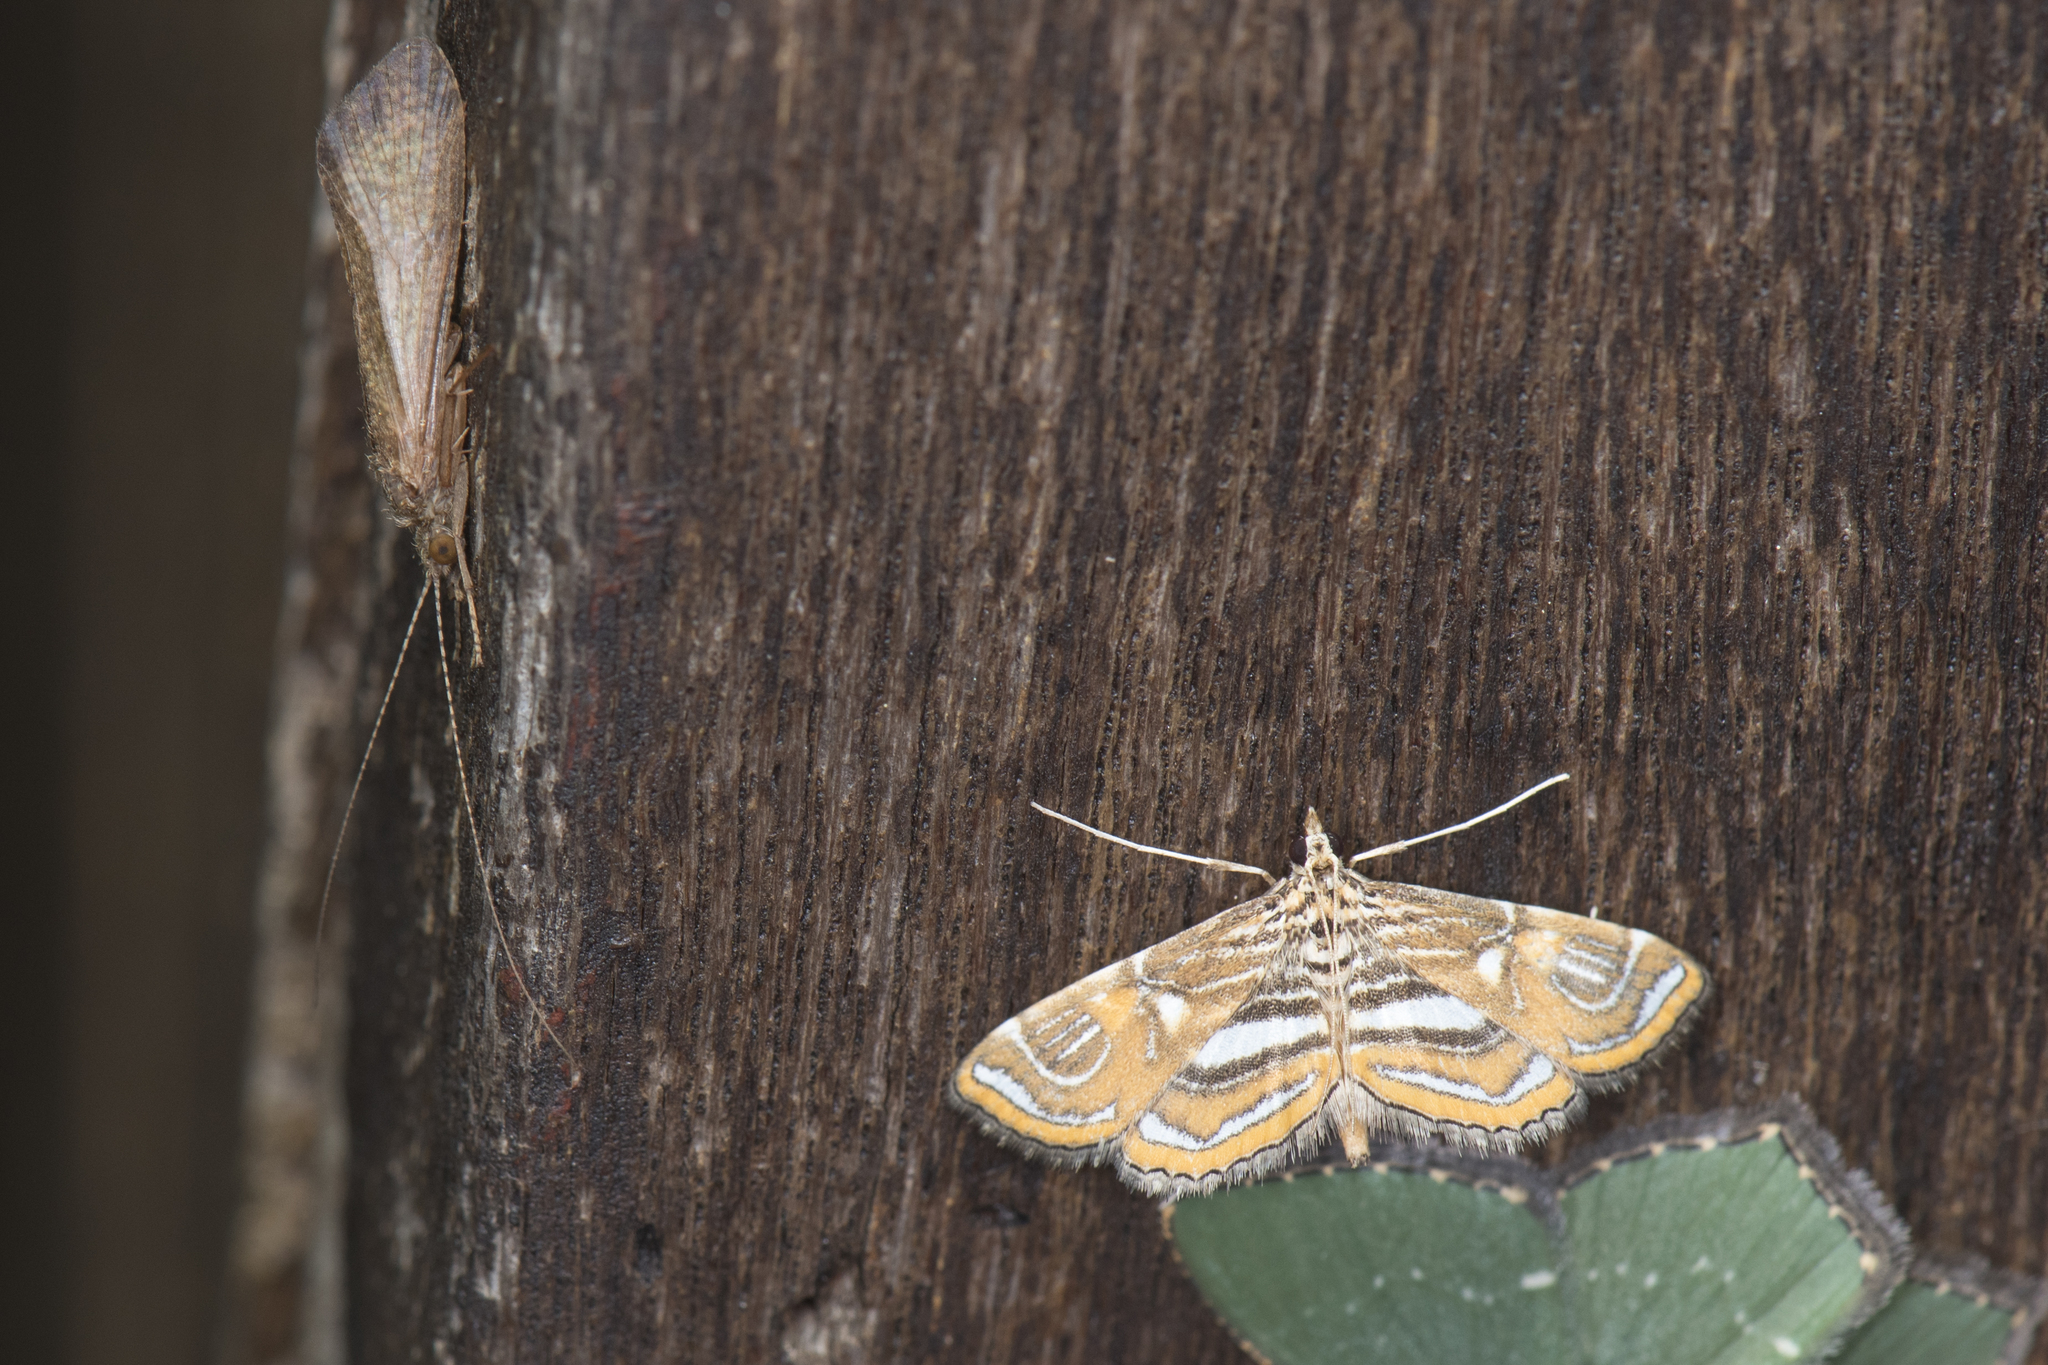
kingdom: Animalia
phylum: Arthropoda
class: Insecta
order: Lepidoptera
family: Crambidae
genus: Paracymoriza
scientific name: Paracymoriza cataclystalis
